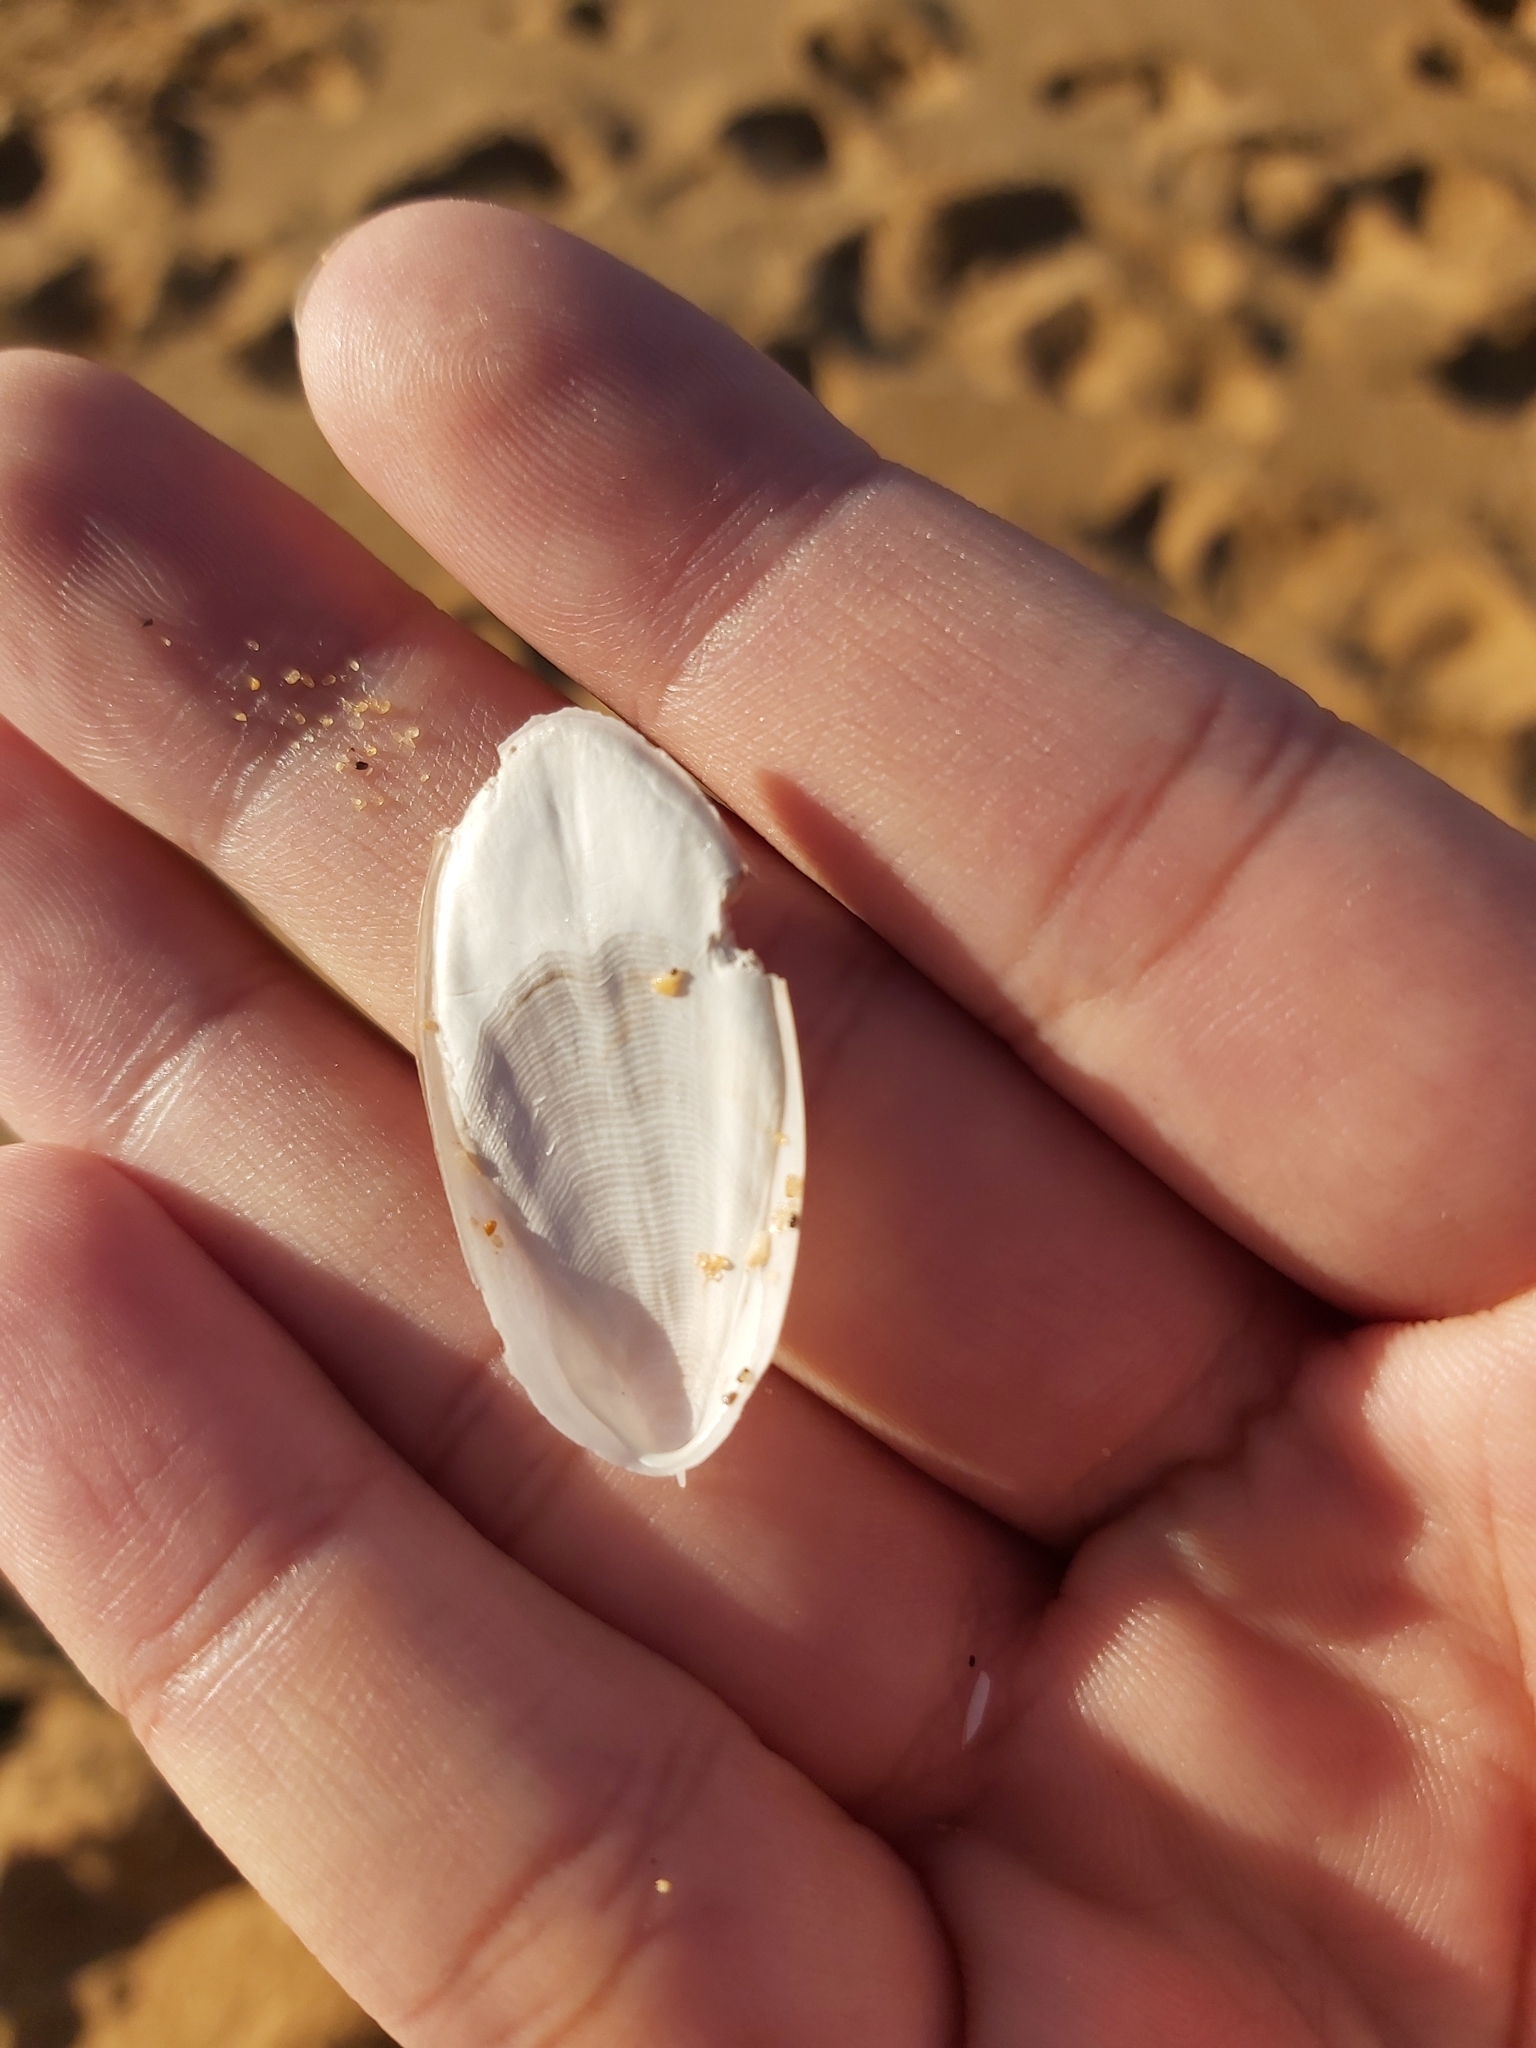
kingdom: Animalia
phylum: Mollusca
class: Cephalopoda
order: Sepiida
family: Sepiidae
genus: Ascarosepion
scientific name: Ascarosepion mestus
